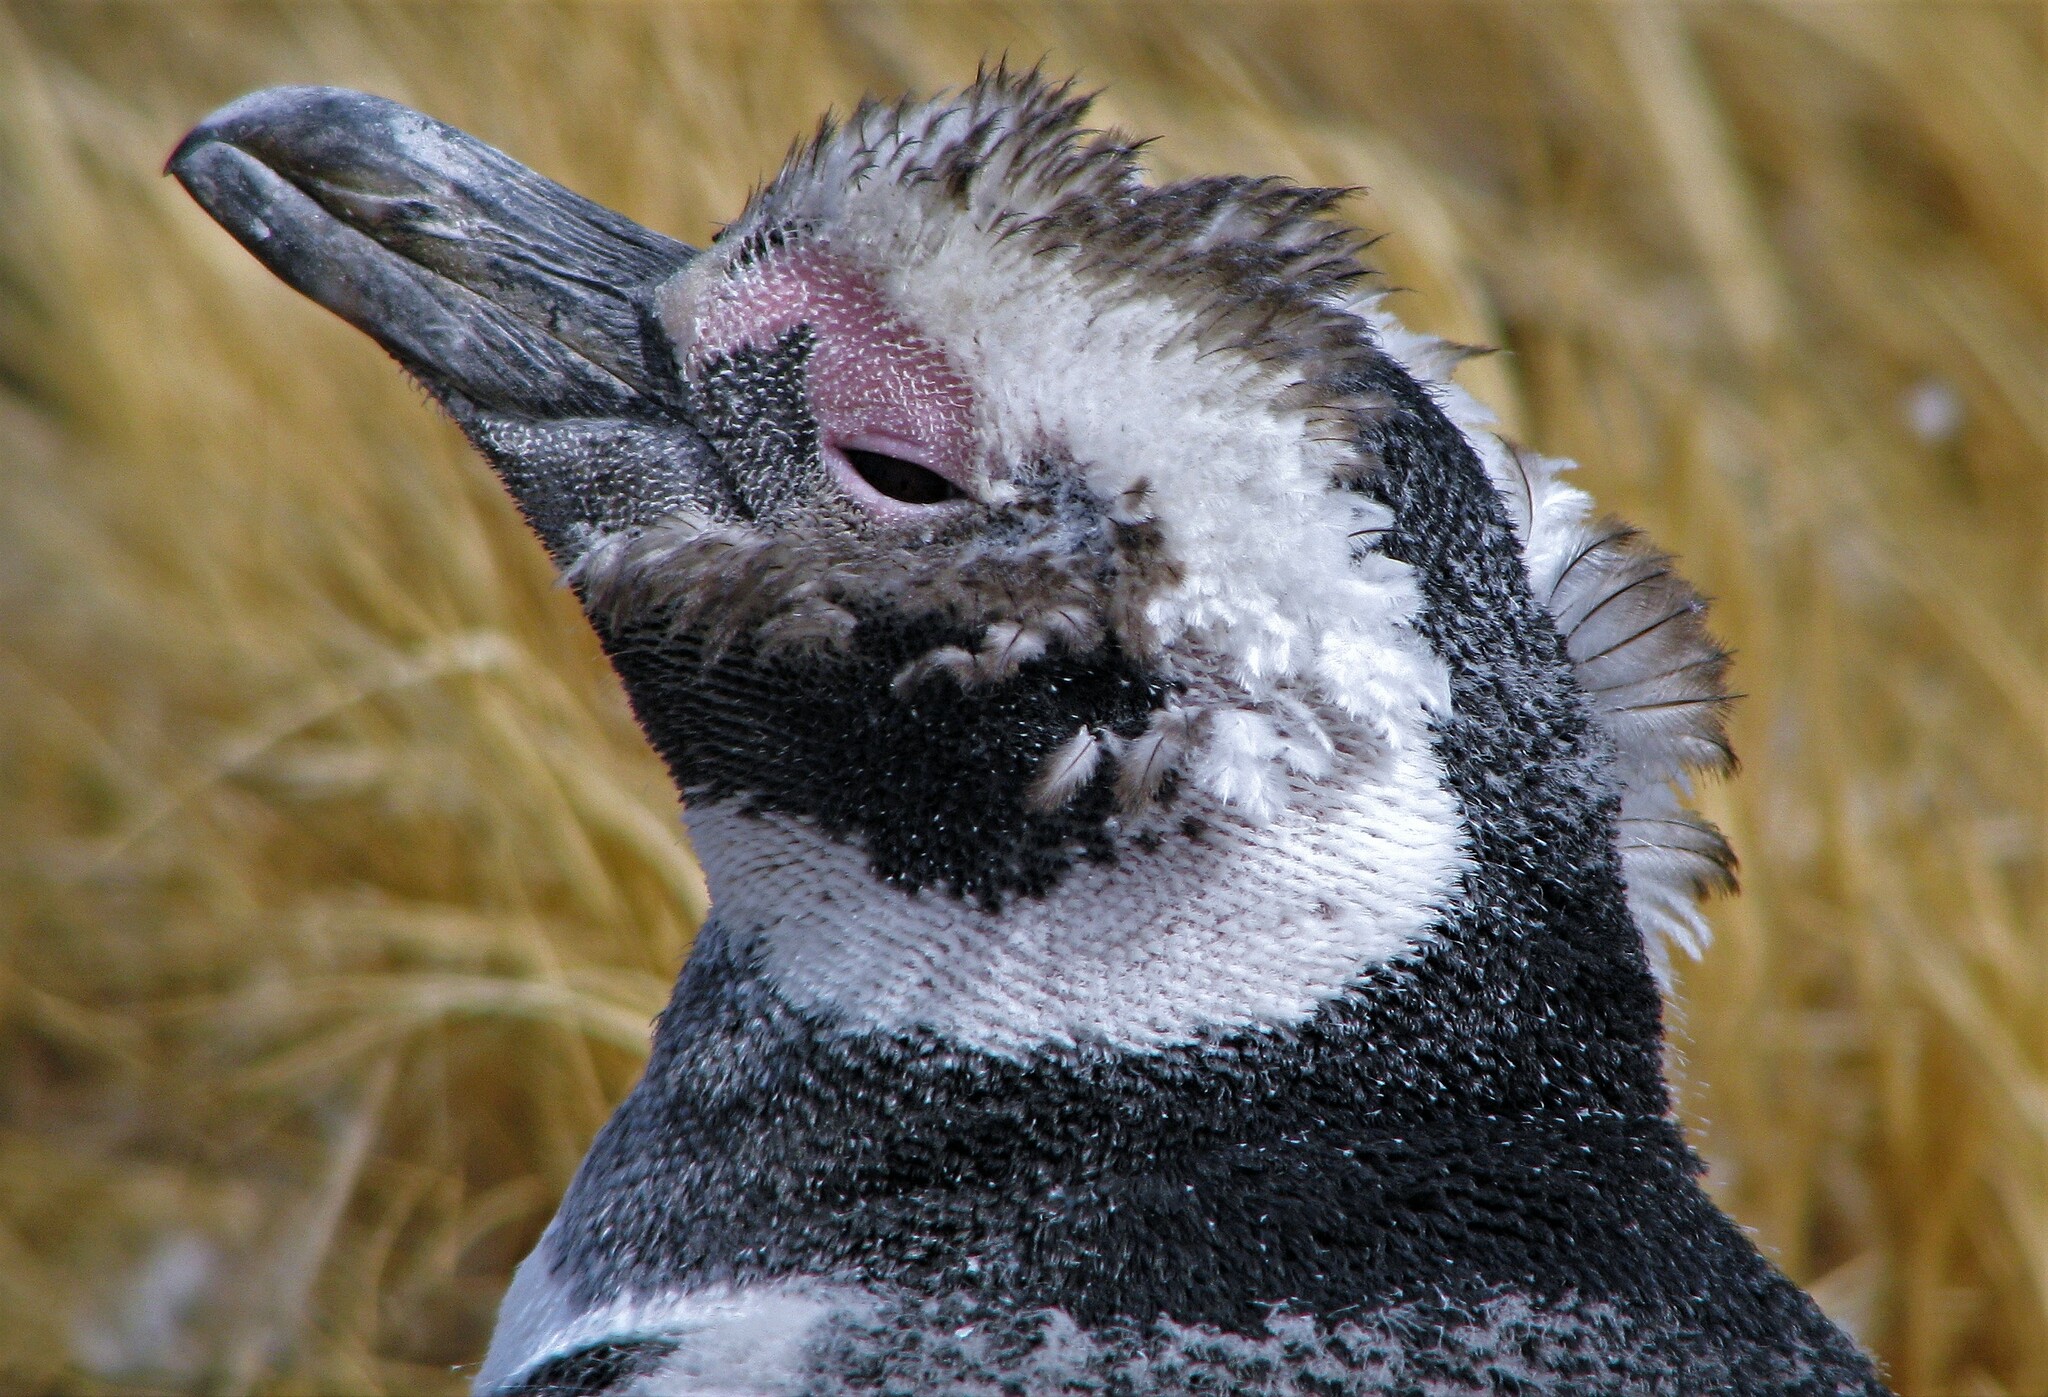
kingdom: Animalia
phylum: Chordata
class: Aves
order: Sphenisciformes
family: Spheniscidae
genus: Spheniscus
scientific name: Spheniscus magellanicus
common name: Magellanic penguin
